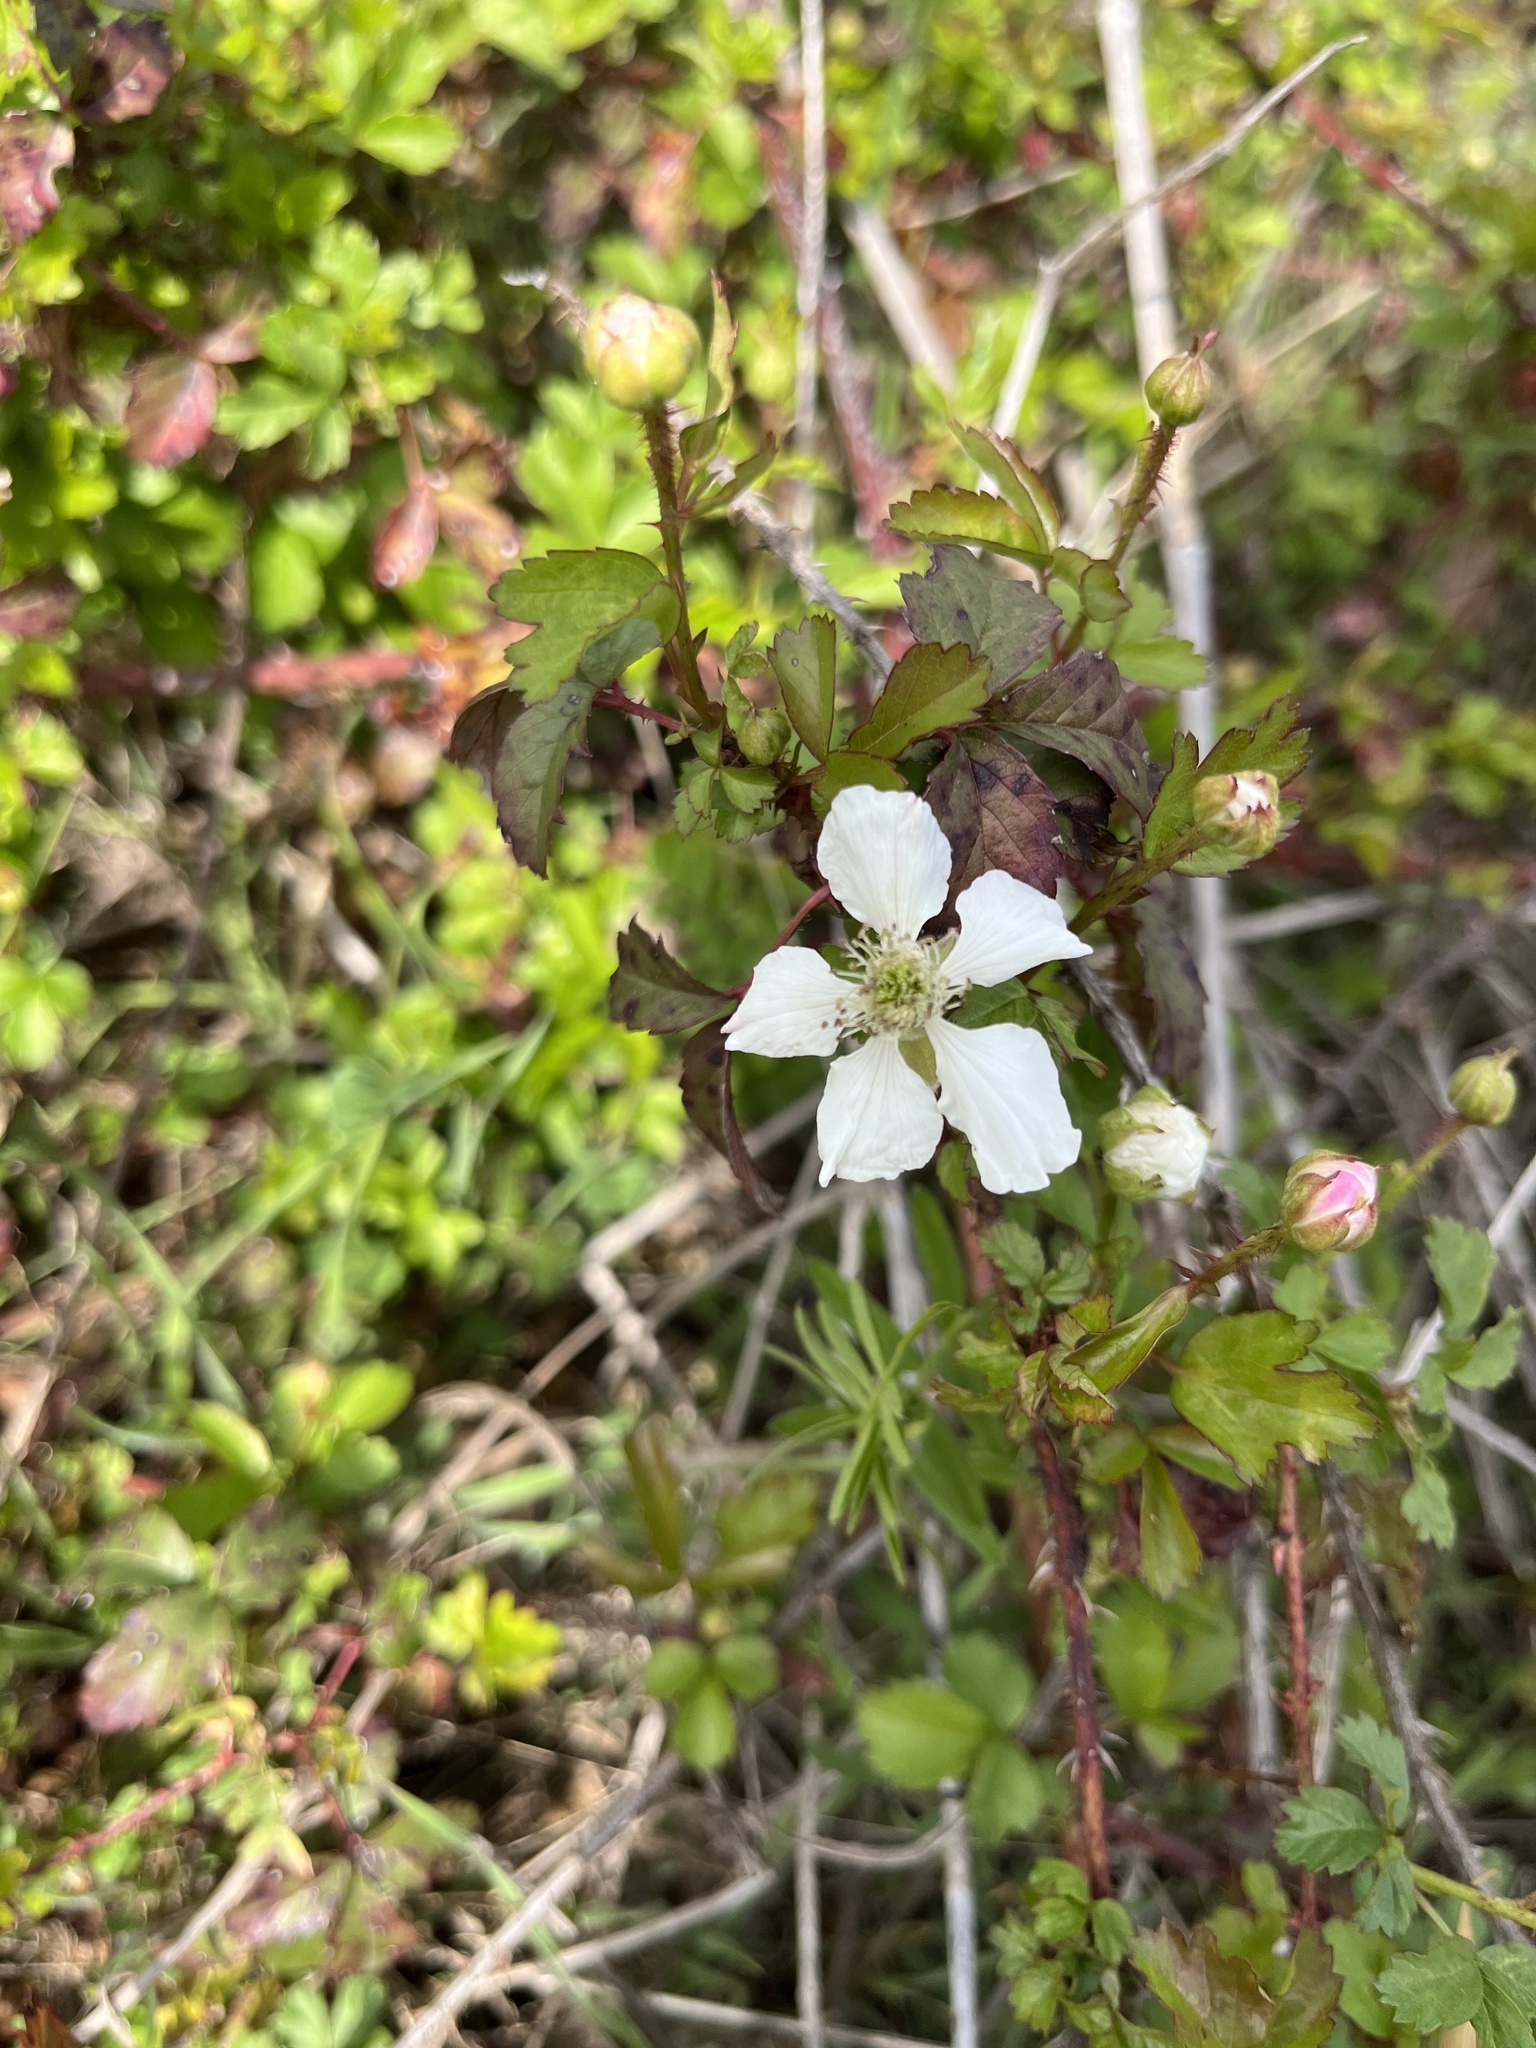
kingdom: Plantae
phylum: Tracheophyta
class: Magnoliopsida
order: Rosales
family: Rosaceae
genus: Rubus
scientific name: Rubus trivialis
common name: Southern dewberry
